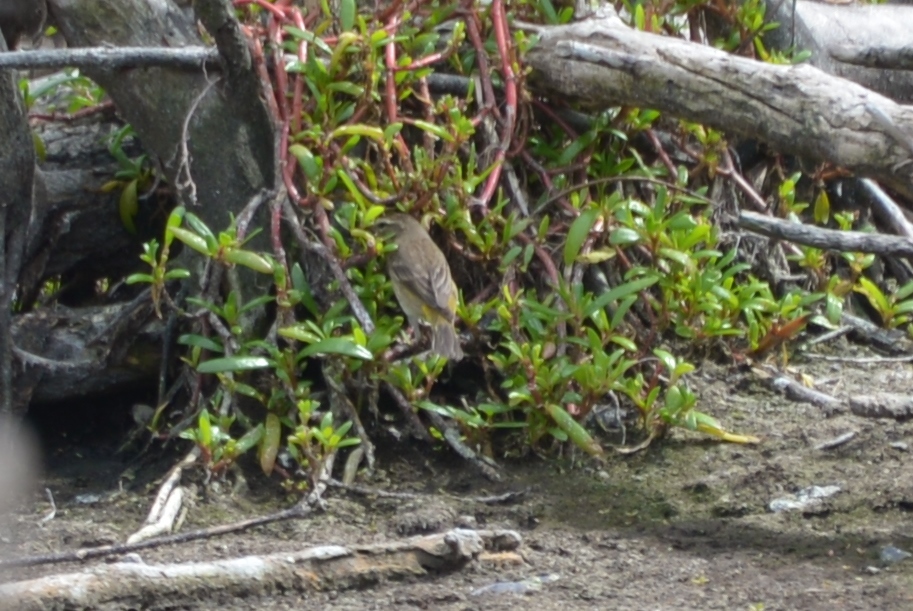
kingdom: Animalia
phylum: Chordata
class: Aves
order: Passeriformes
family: Parulidae
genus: Setophaga
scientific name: Setophaga palmarum
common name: Palm warbler
